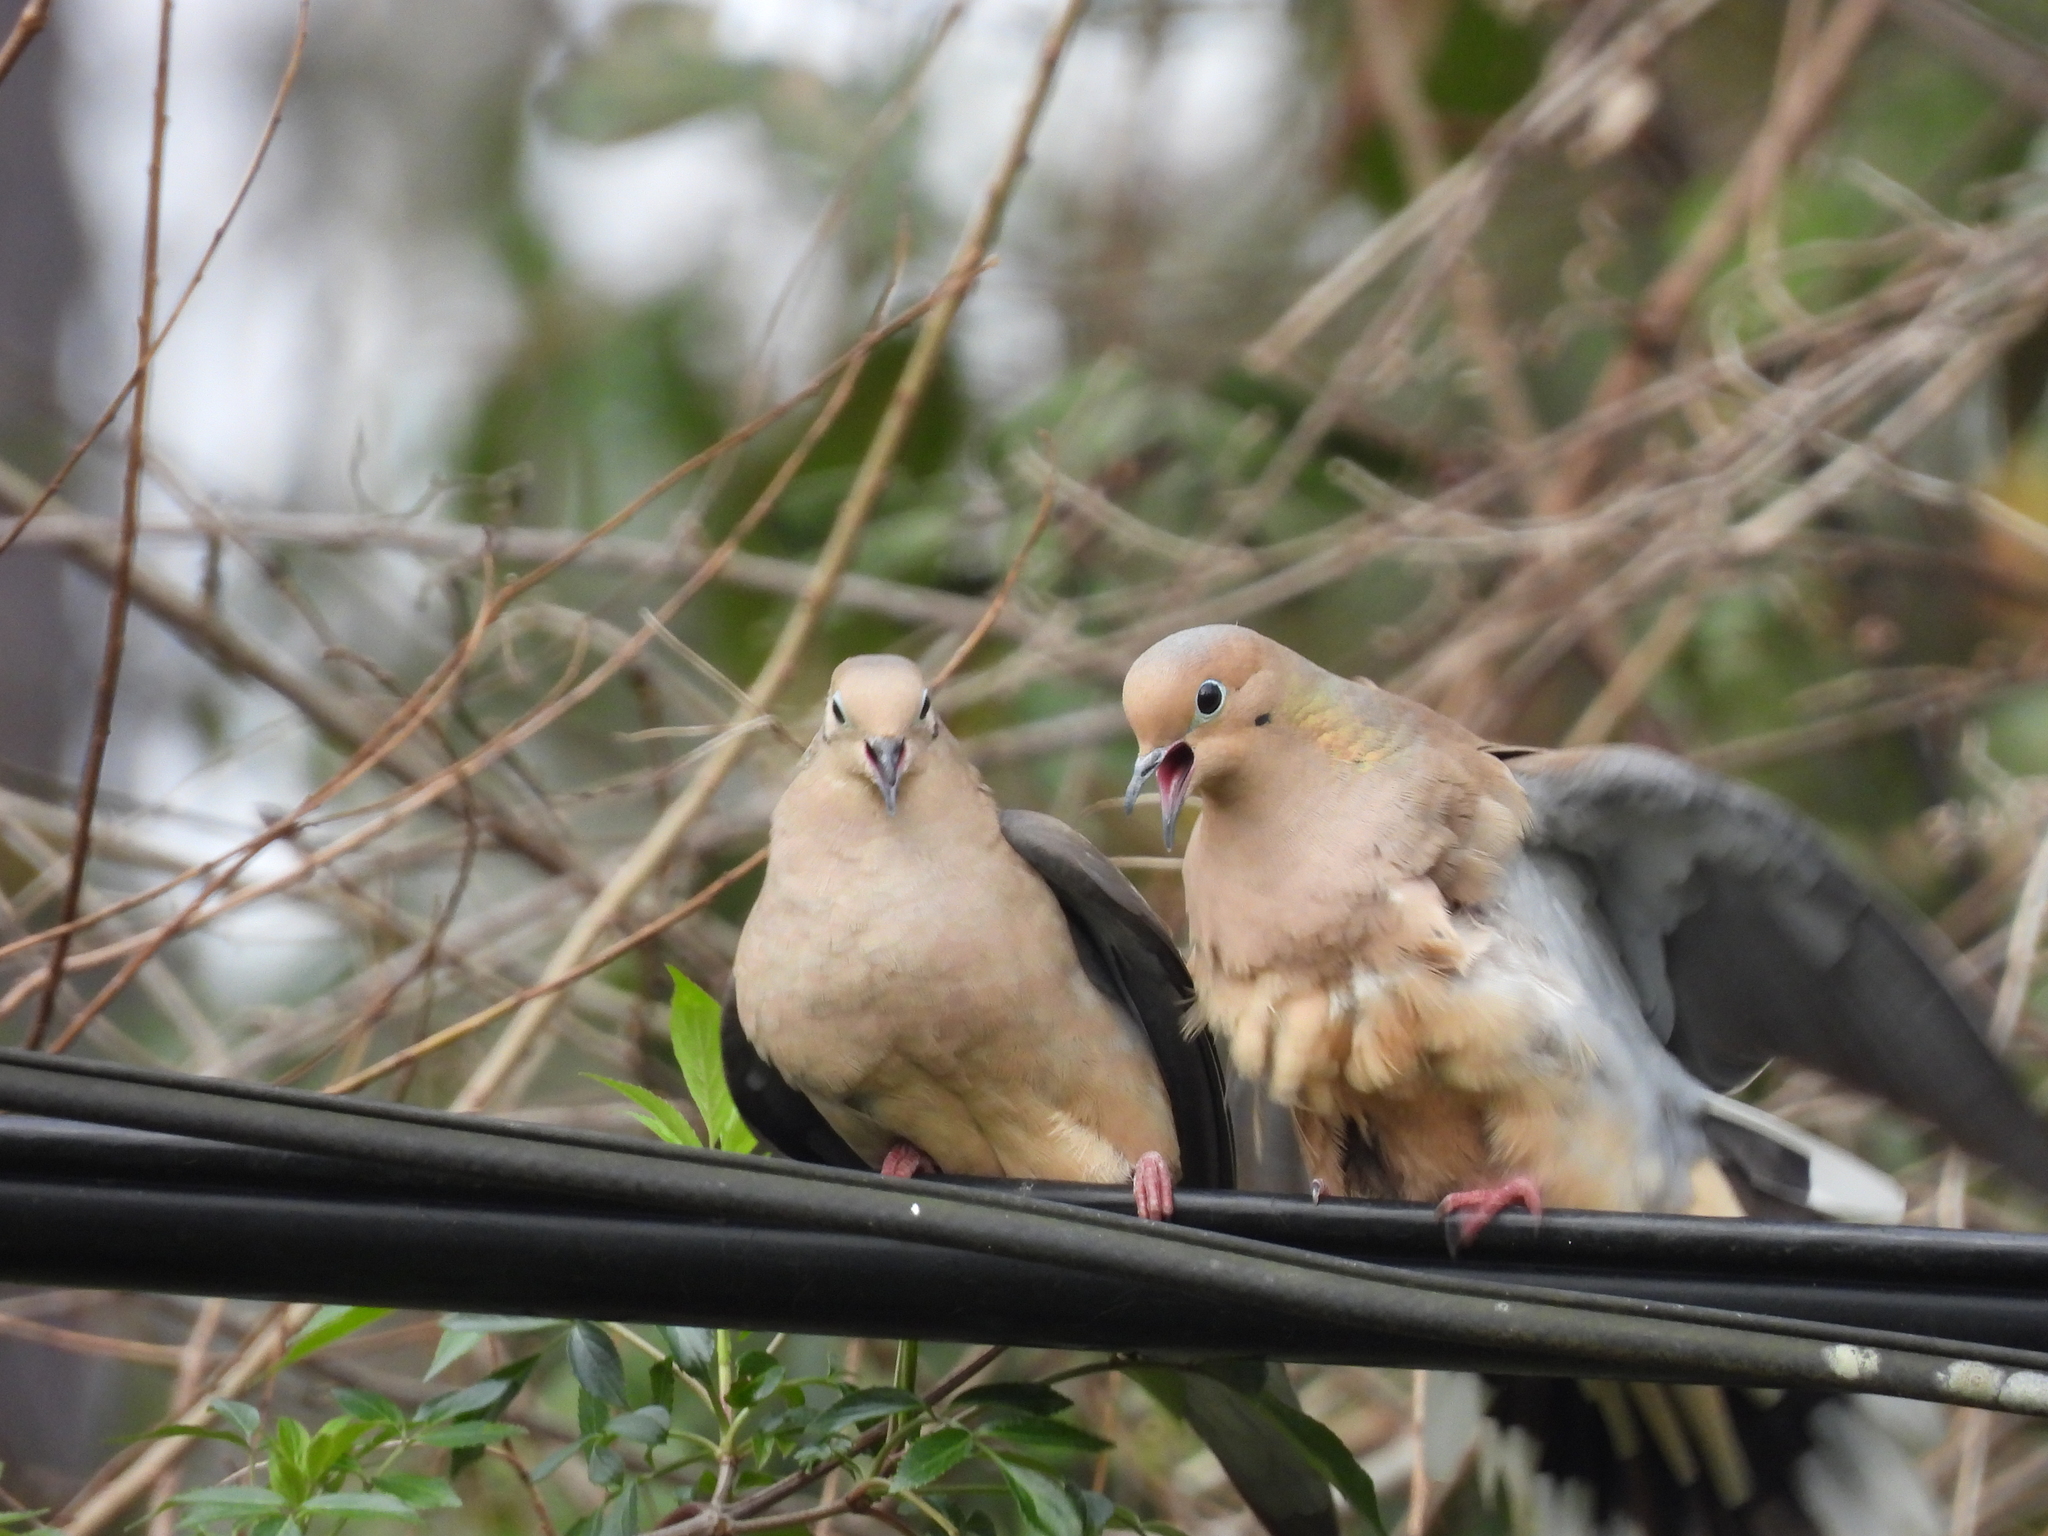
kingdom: Animalia
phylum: Chordata
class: Aves
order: Columbiformes
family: Columbidae
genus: Zenaida
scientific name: Zenaida macroura
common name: Mourning dove
